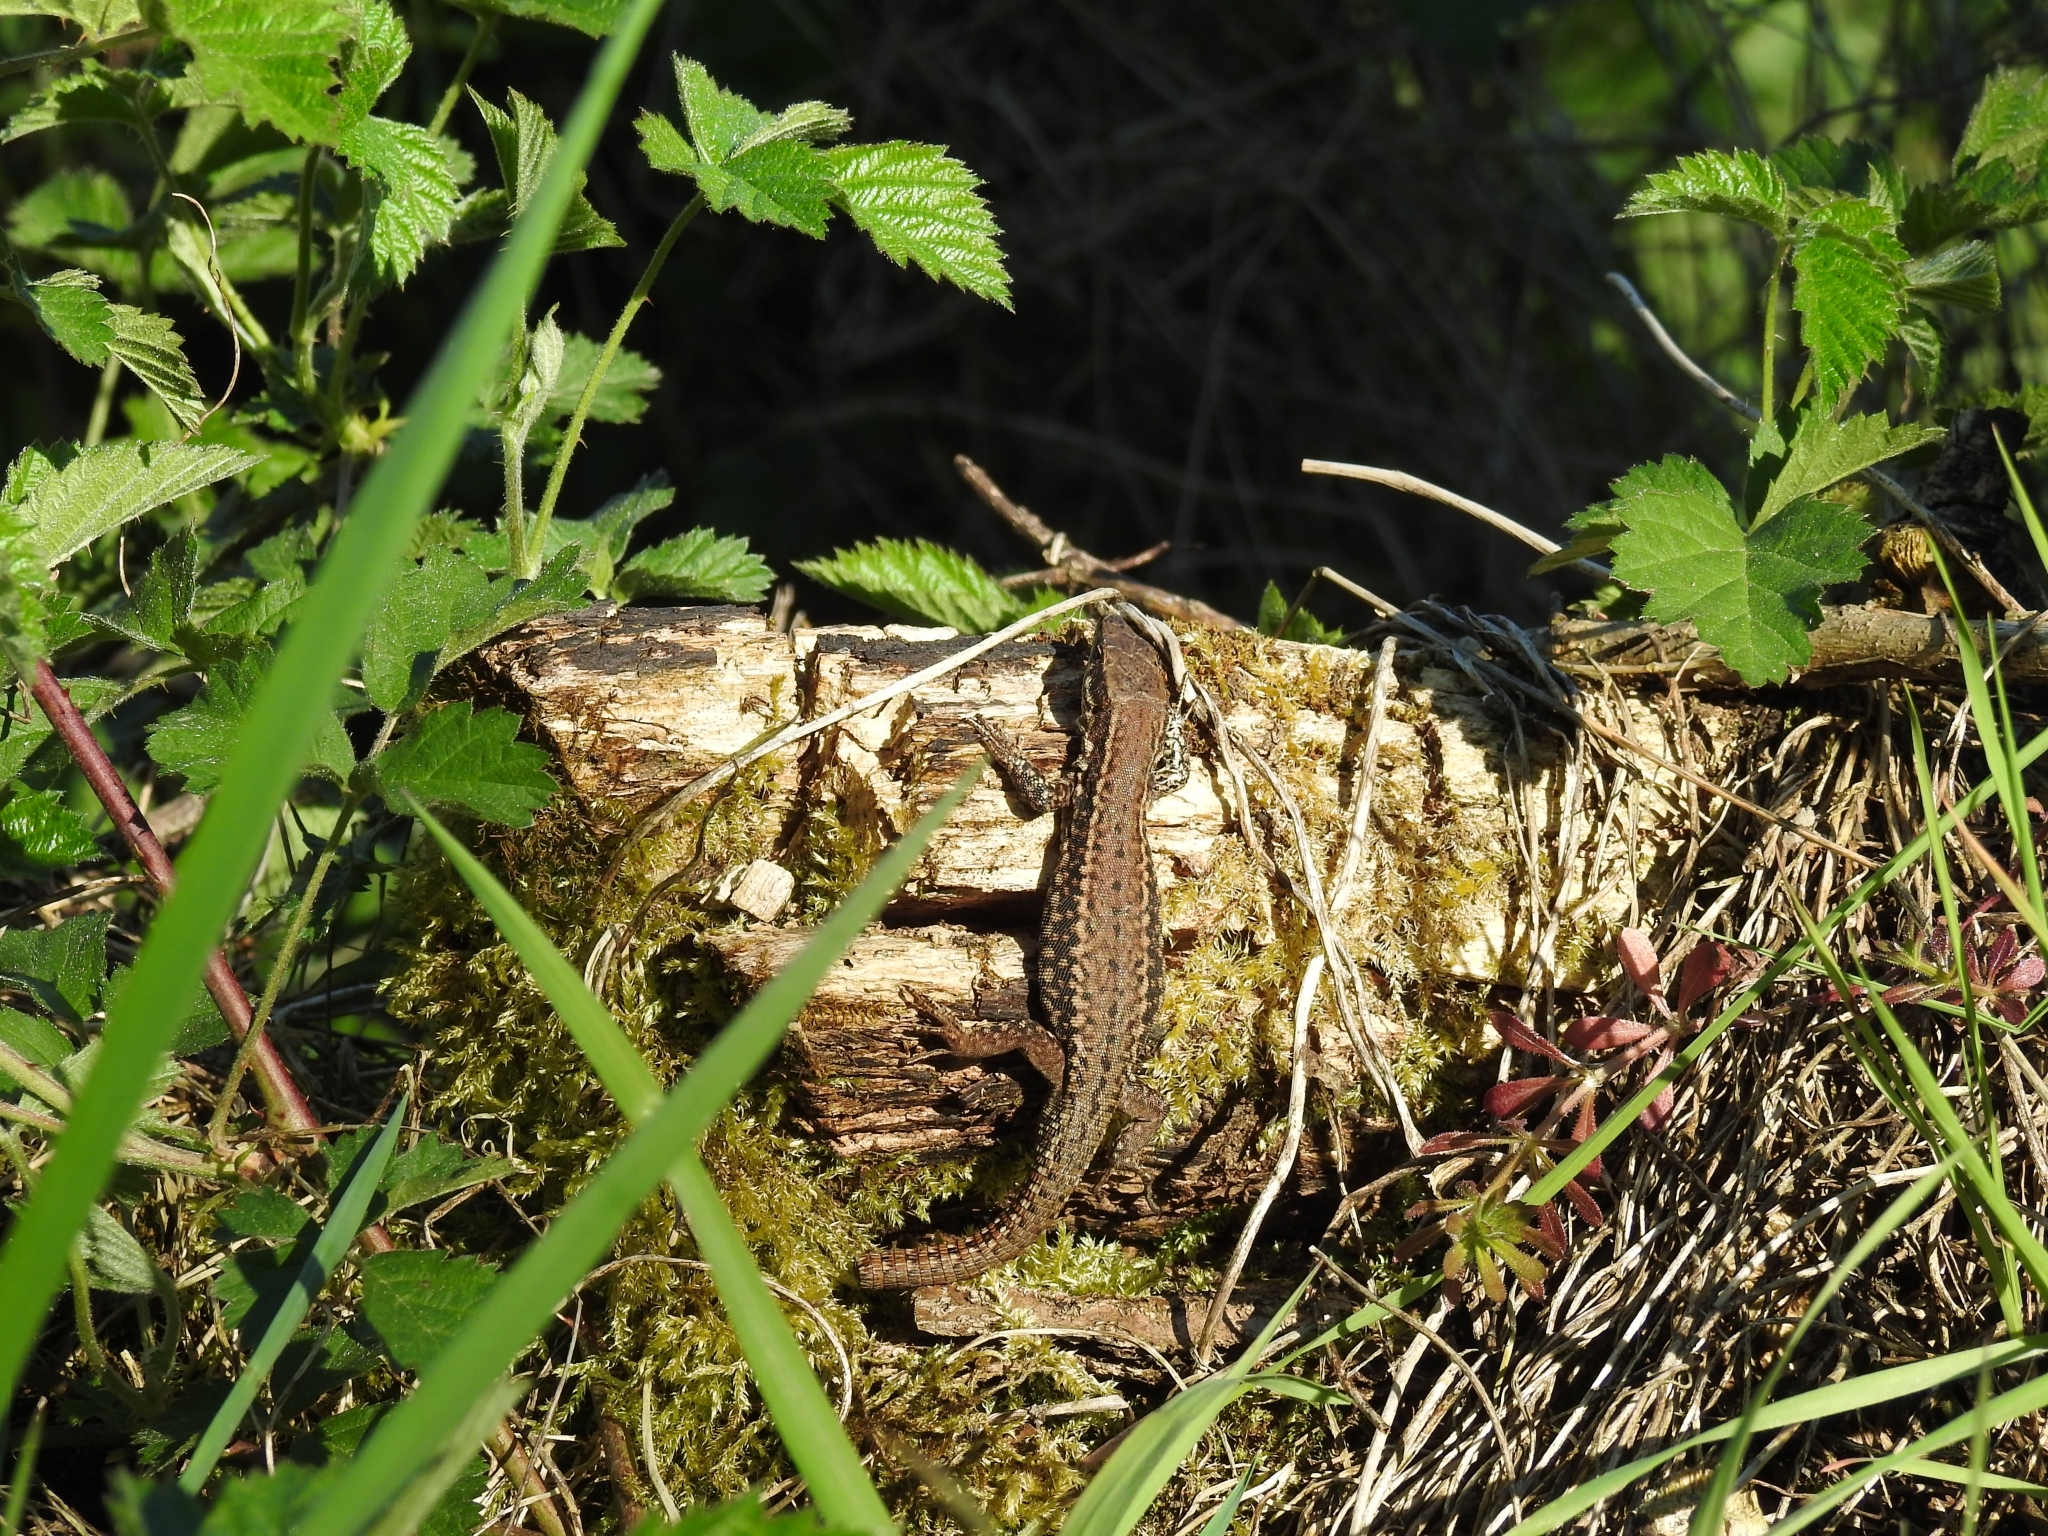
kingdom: Animalia
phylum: Chordata
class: Squamata
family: Lacertidae
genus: Podarcis
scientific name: Podarcis muralis
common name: Common wall lizard
